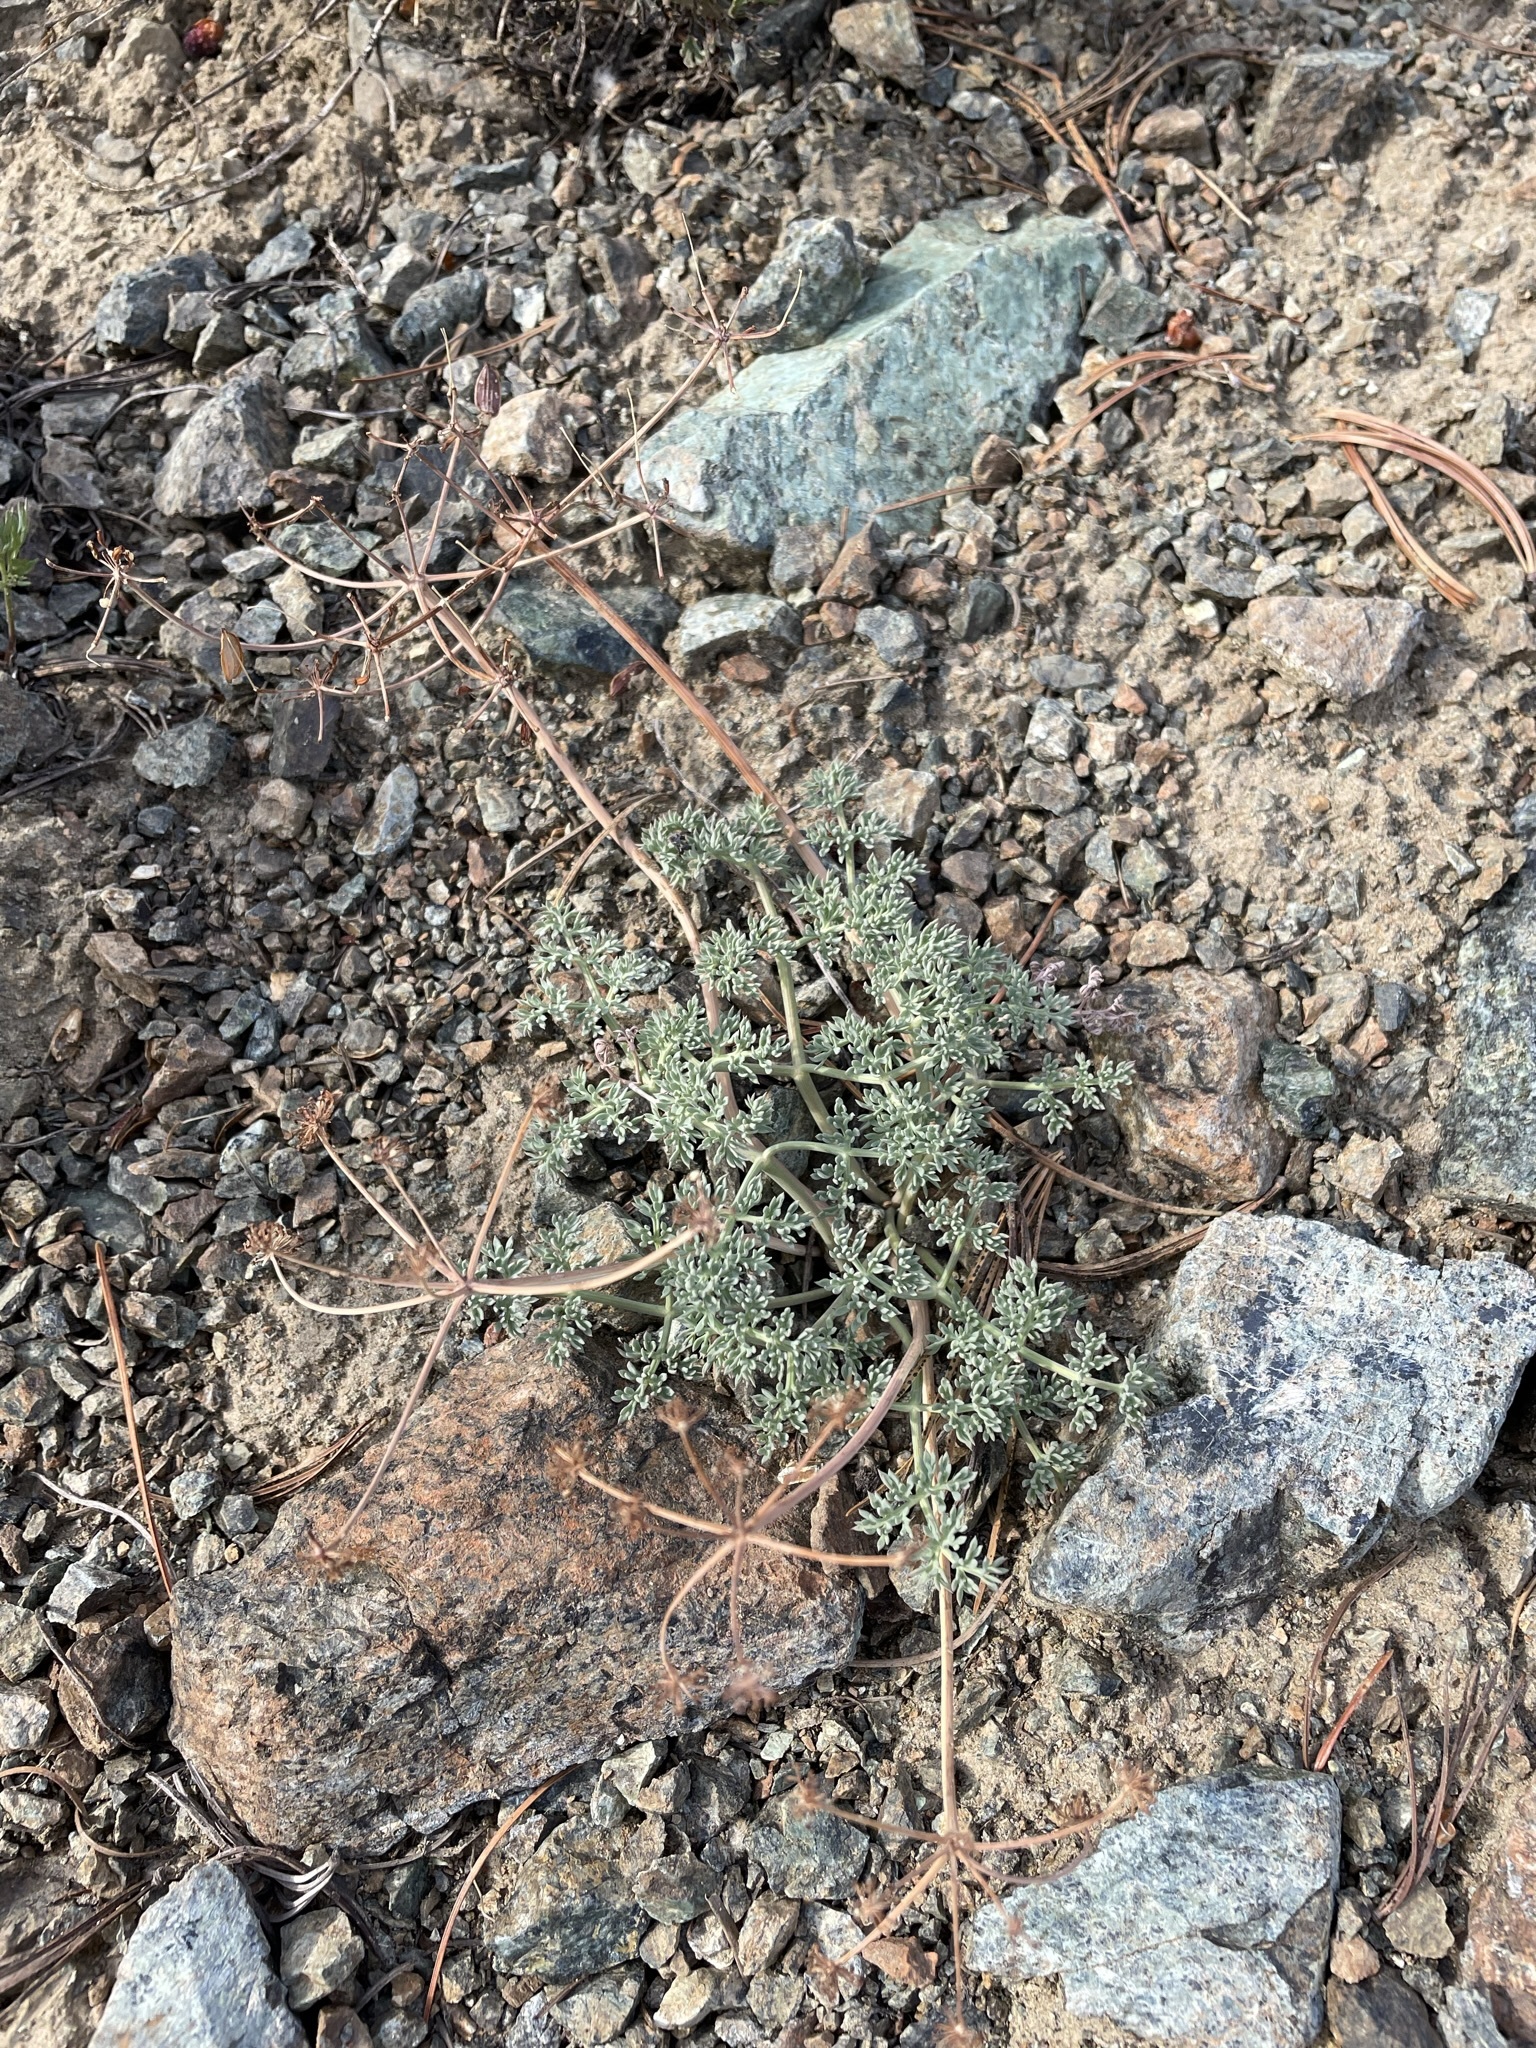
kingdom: Plantae
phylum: Tracheophyta
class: Magnoliopsida
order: Apiales
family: Apiaceae
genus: Lomatium
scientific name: Lomatium cuspidatum
